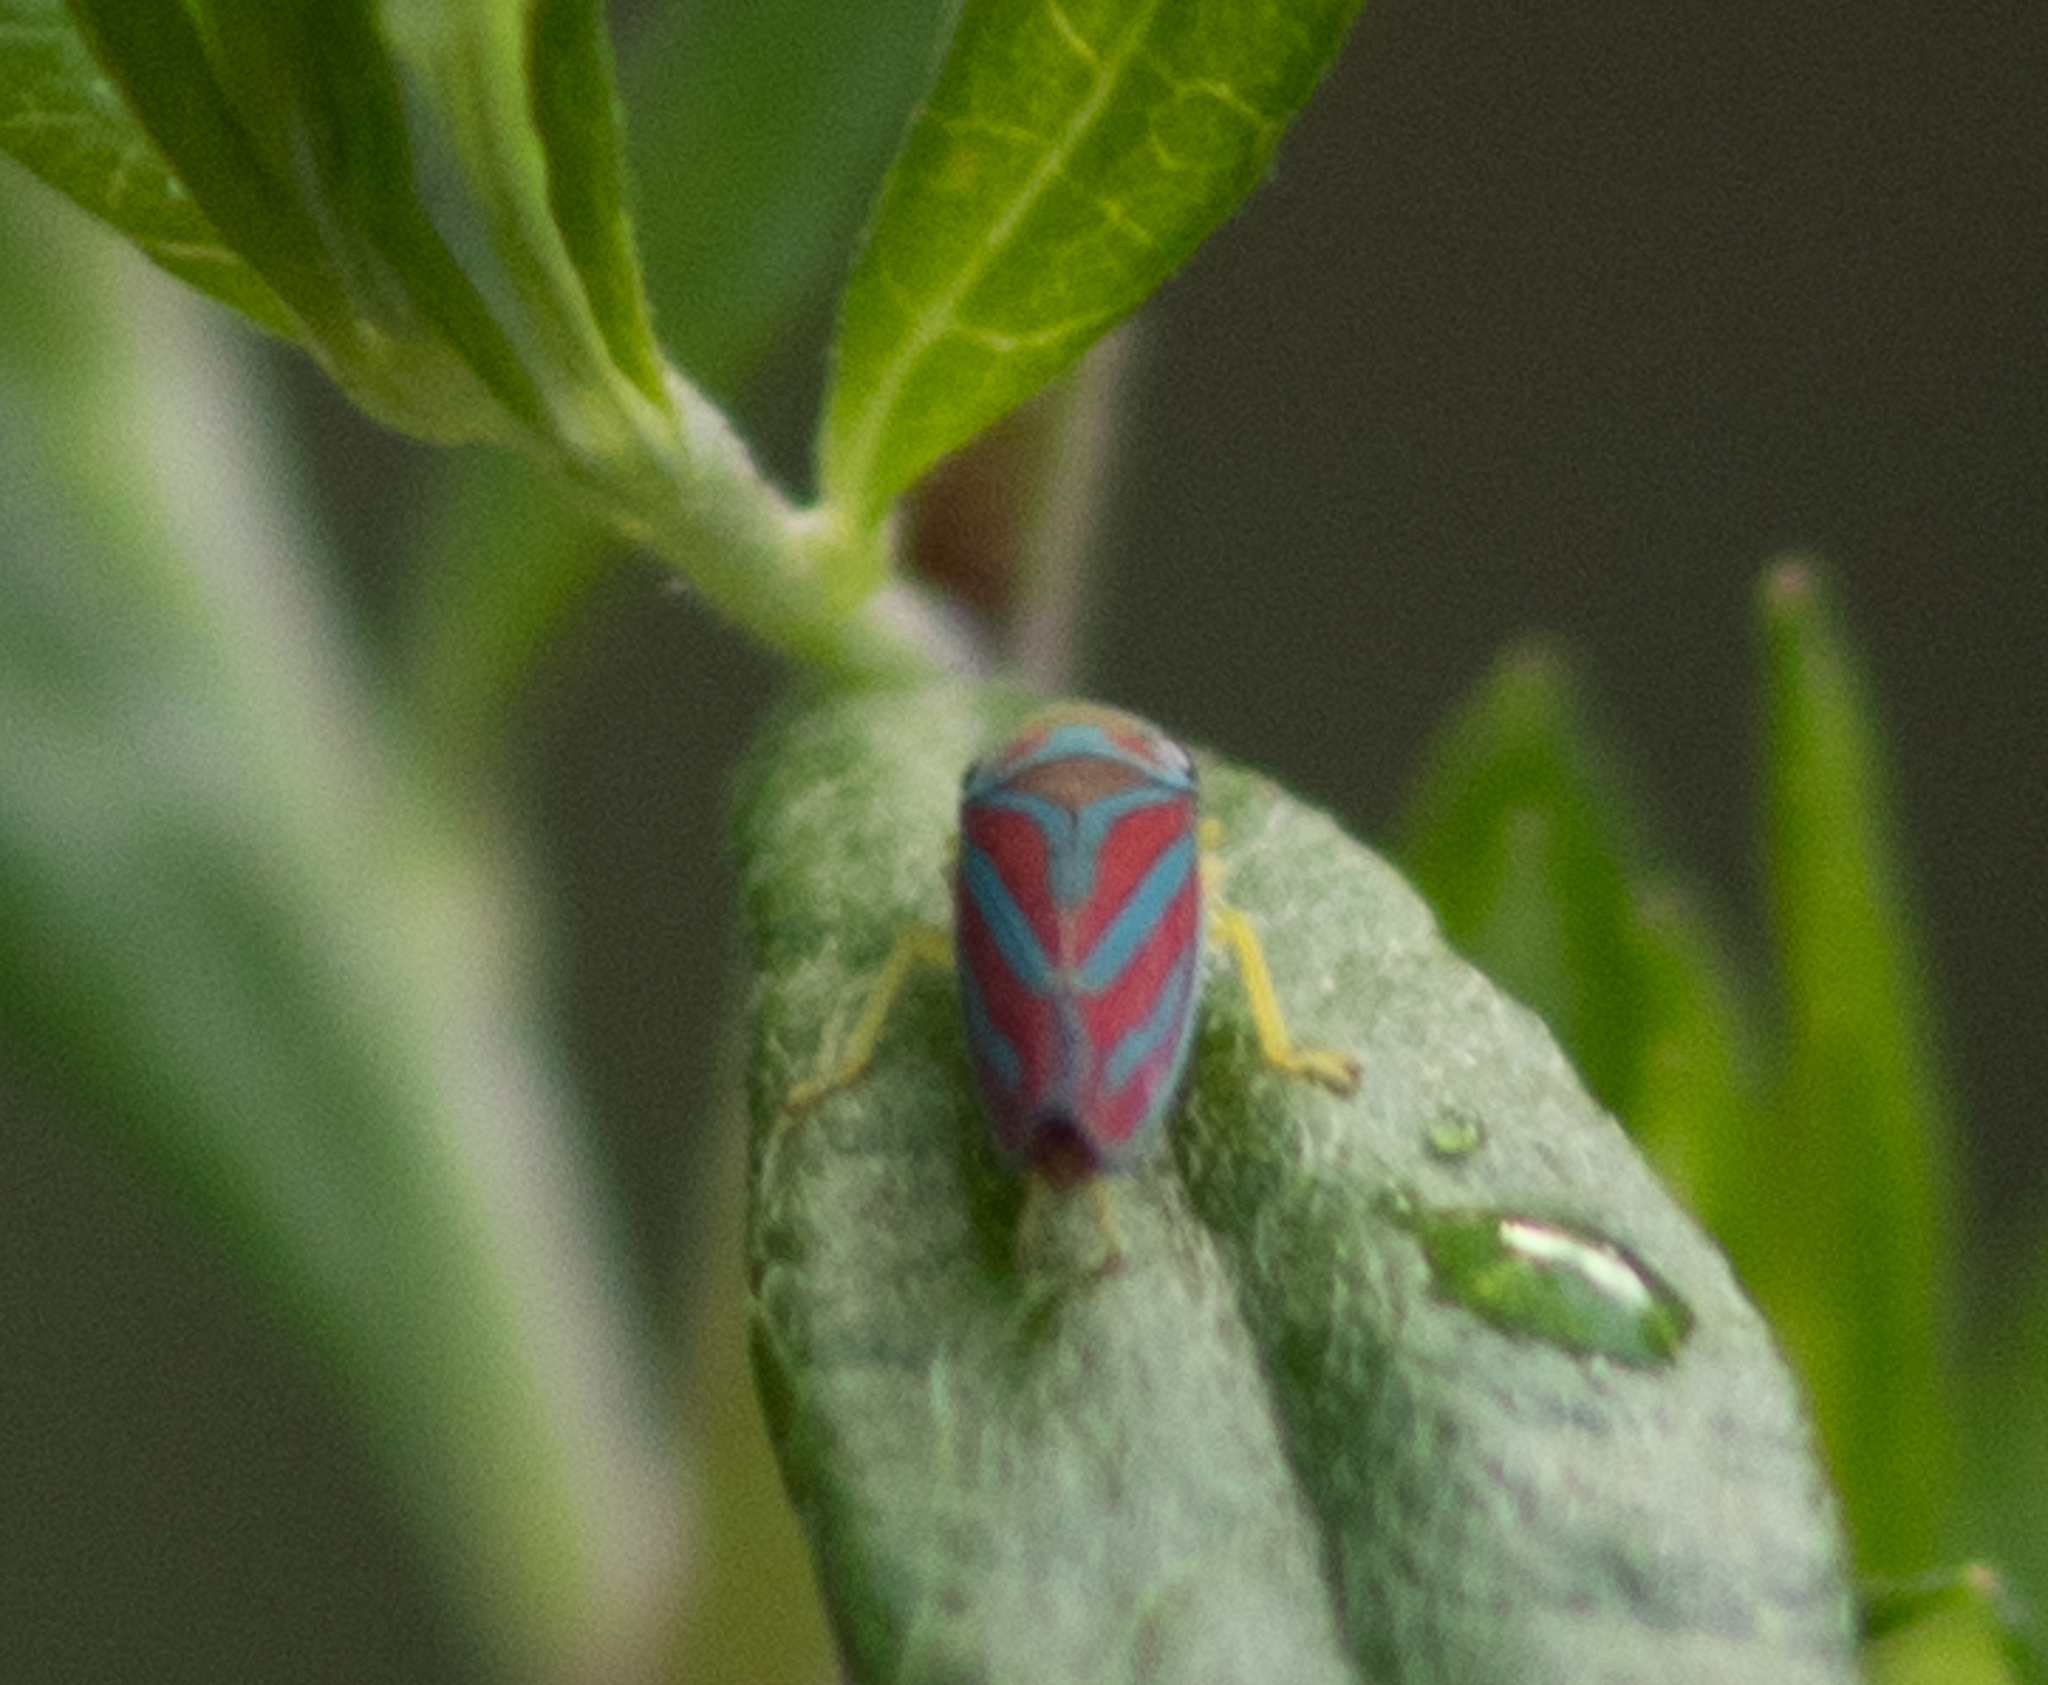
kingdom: Animalia
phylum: Arthropoda
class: Insecta
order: Hemiptera
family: Cicadellidae
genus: Graphocephala
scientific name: Graphocephala coccinea
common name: Candy-striped leafhopper
